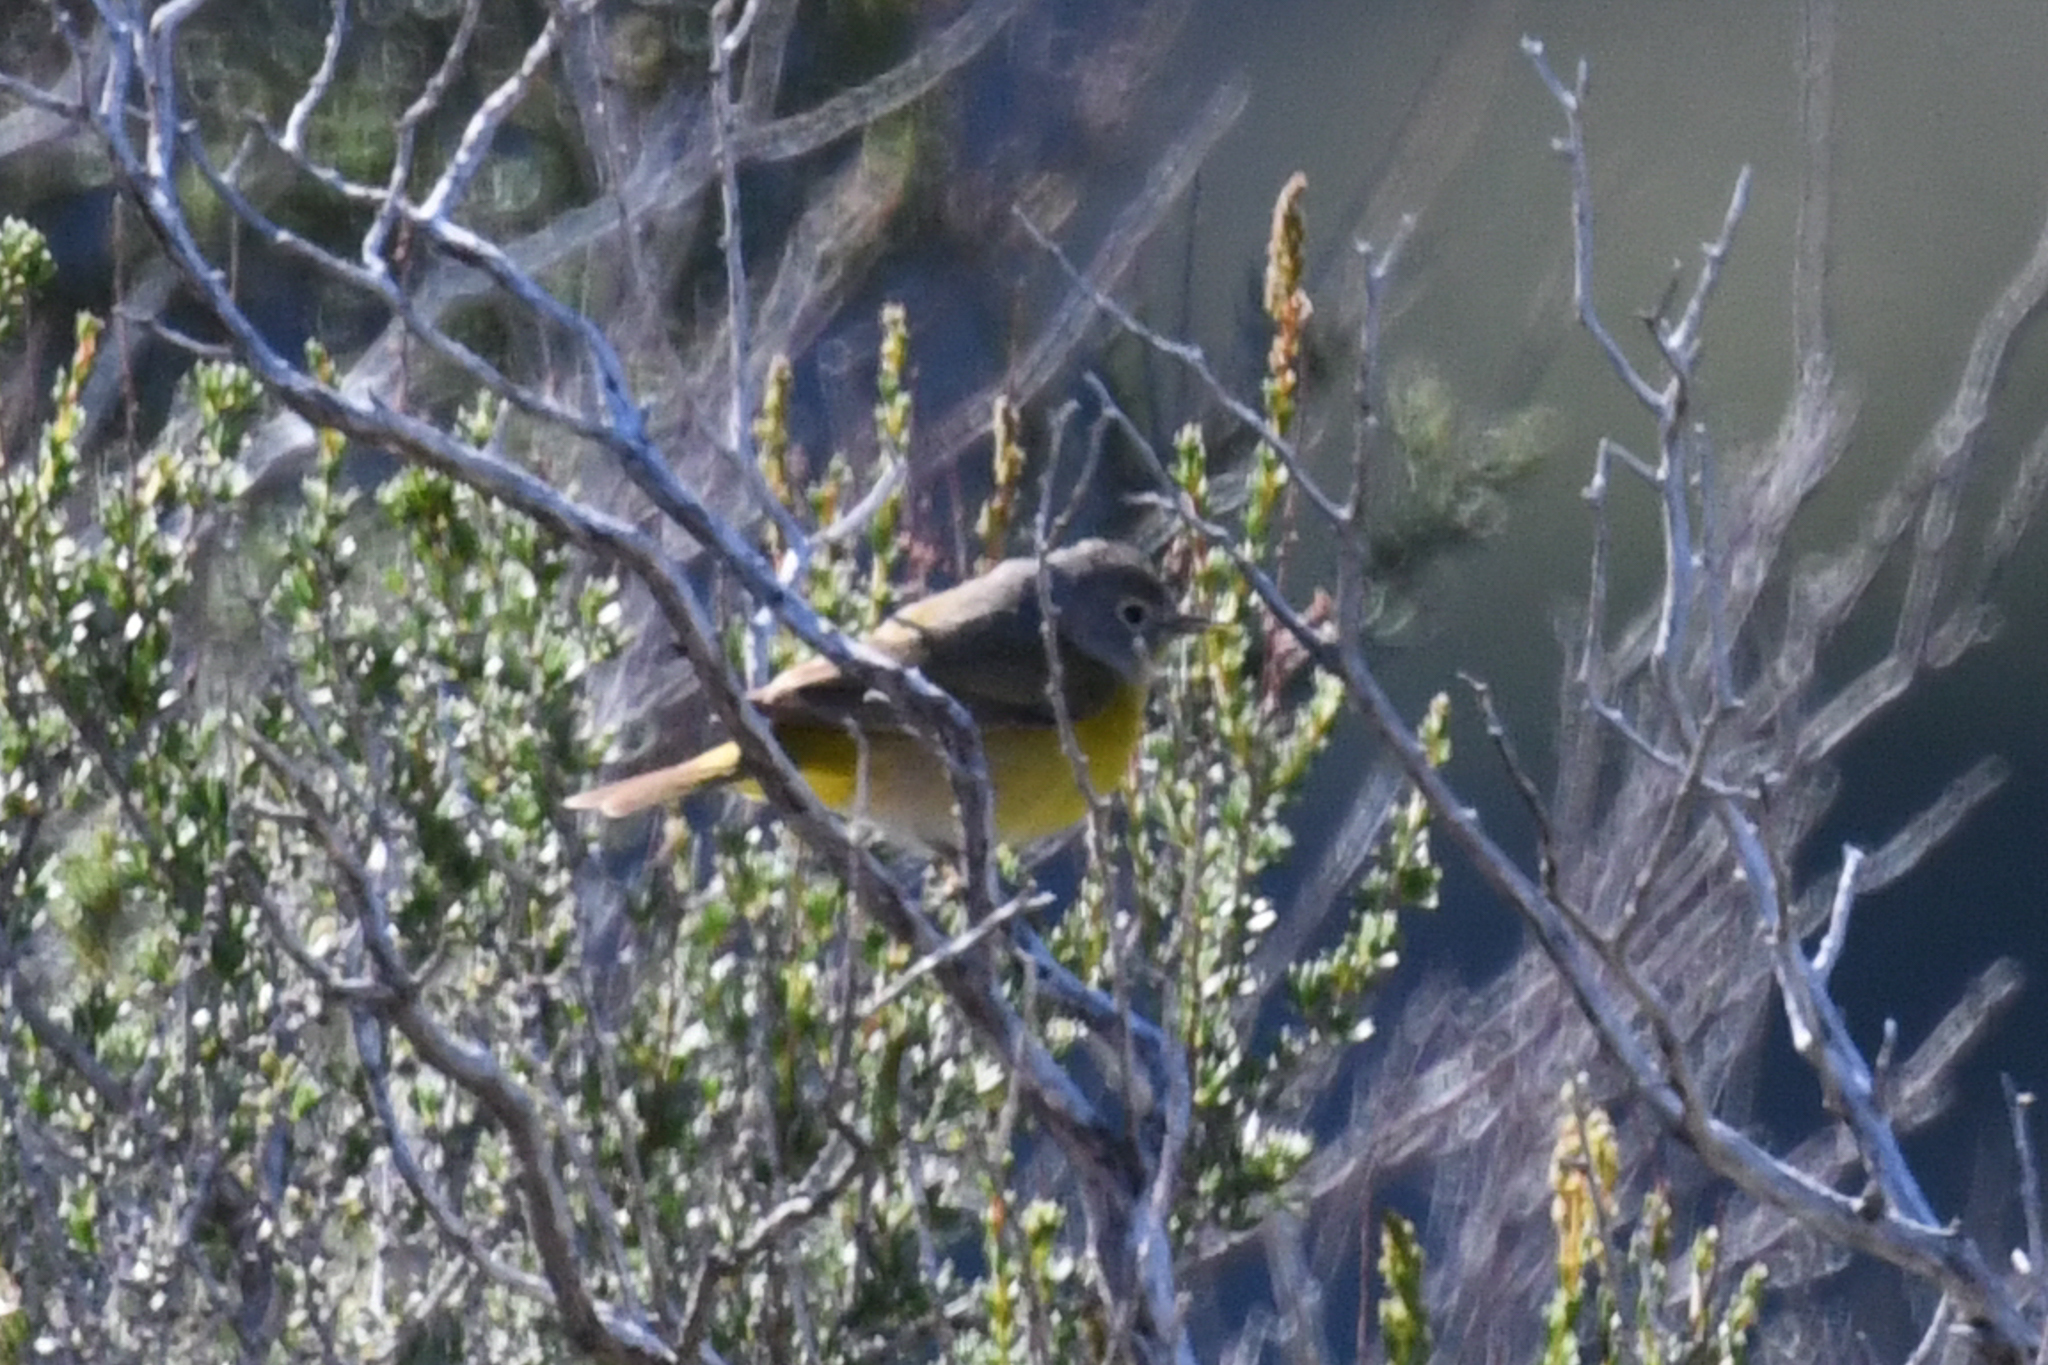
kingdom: Animalia
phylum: Chordata
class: Aves
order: Passeriformes
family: Parulidae
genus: Leiothlypis
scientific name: Leiothlypis ruficapilla
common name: Nashville warbler
